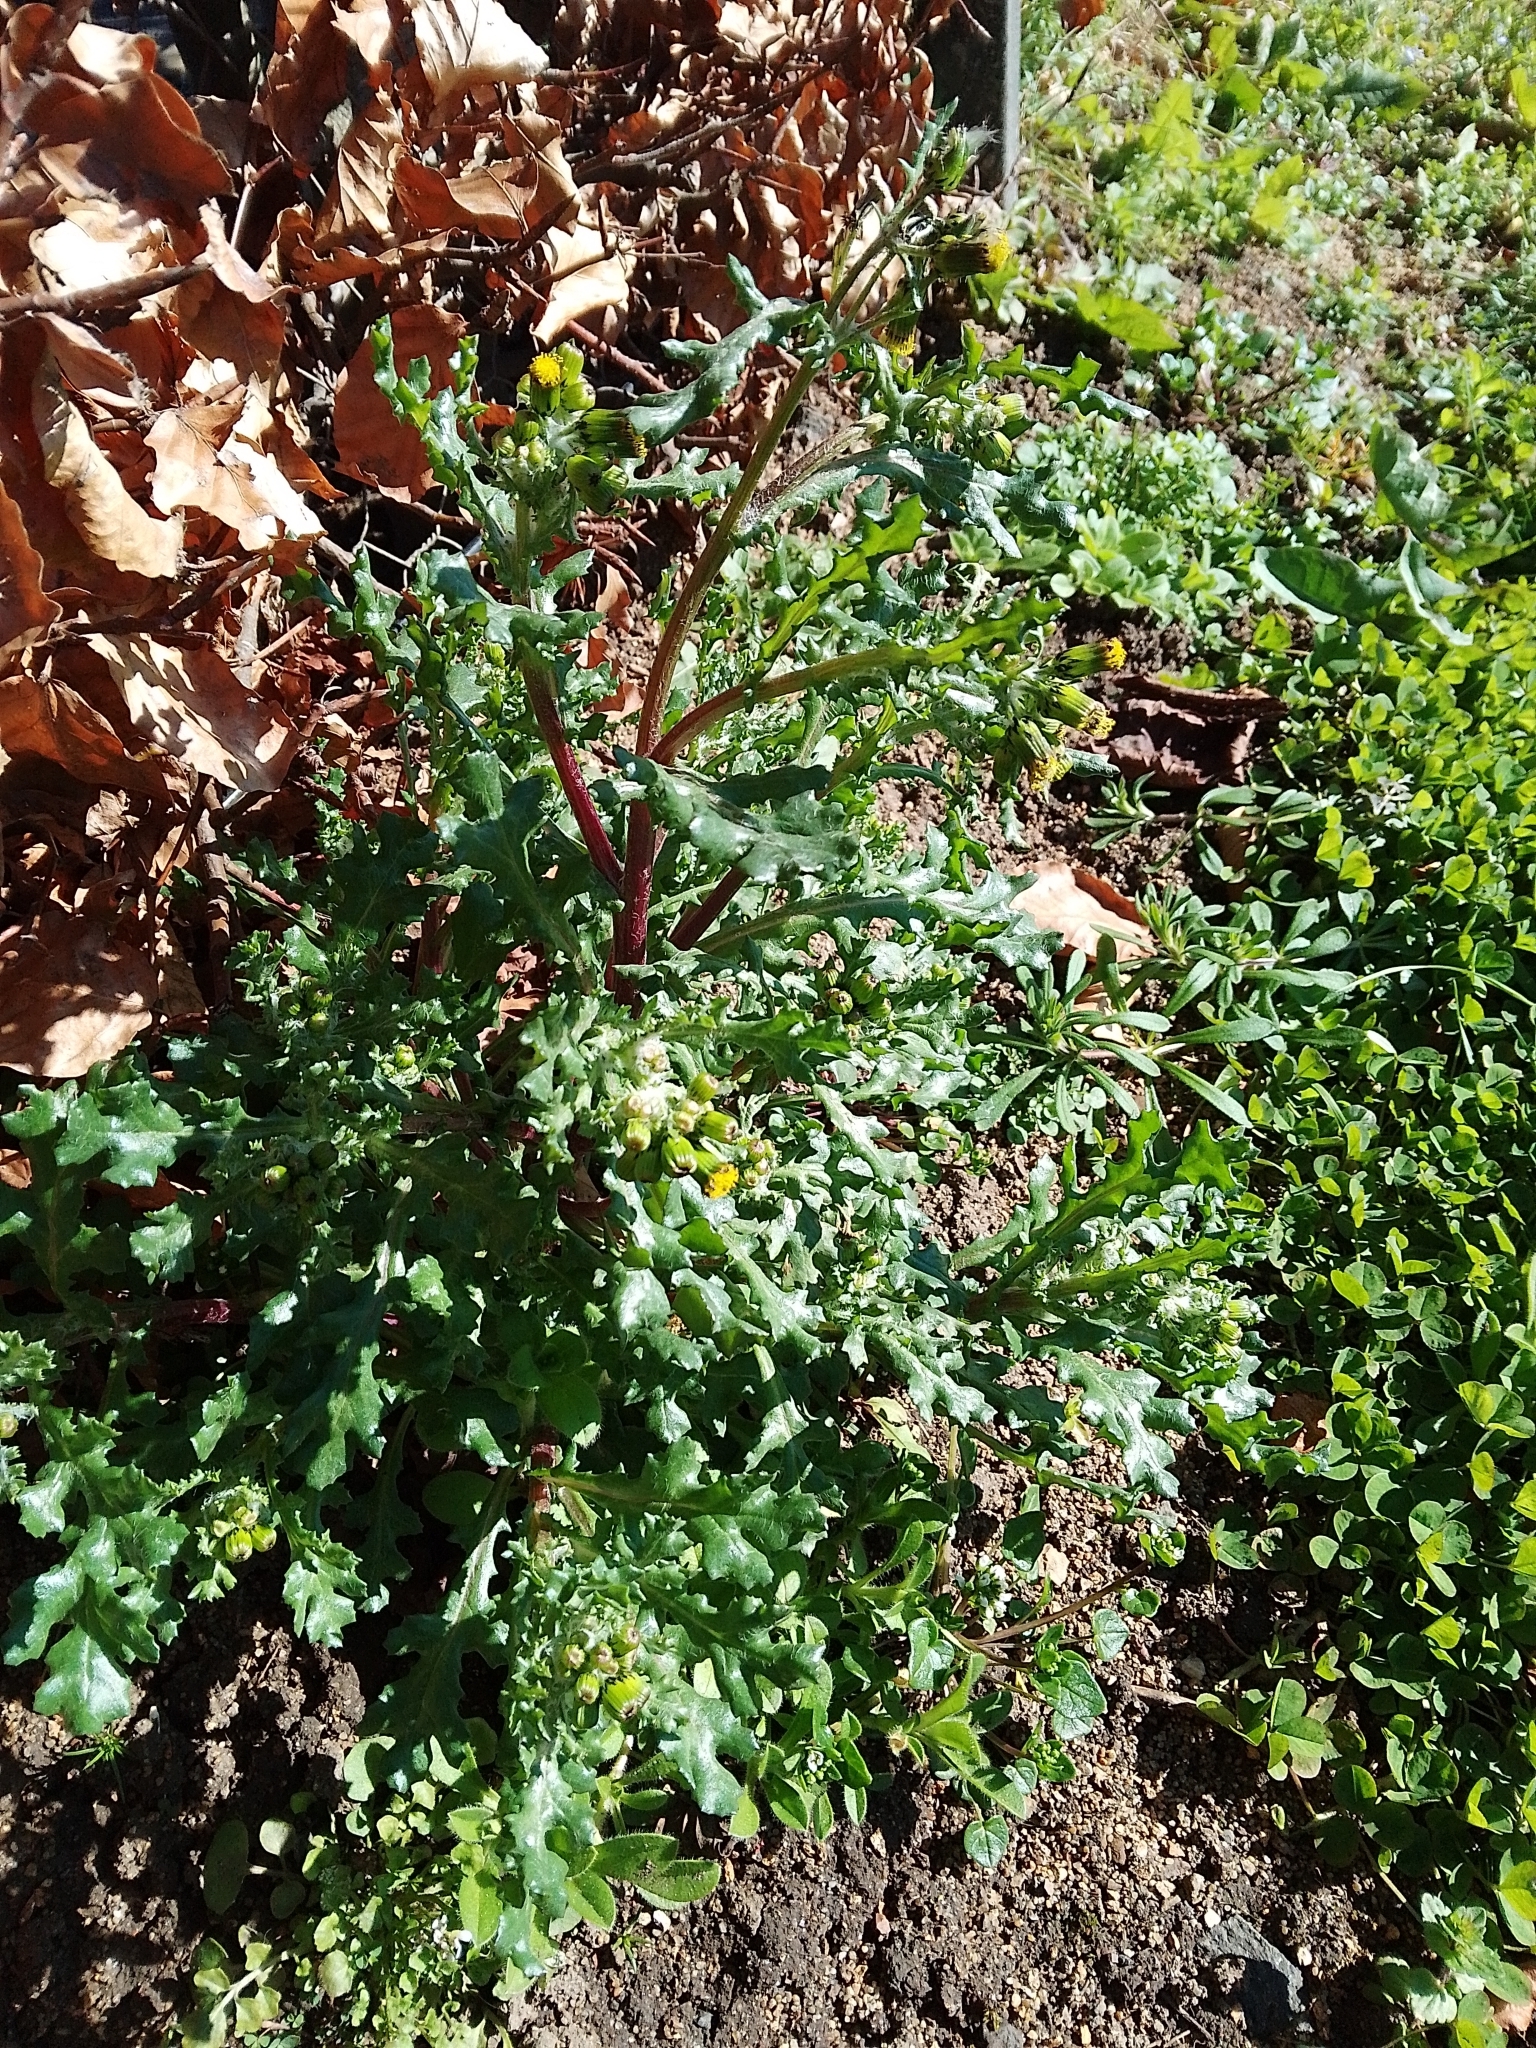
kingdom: Plantae
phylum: Tracheophyta
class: Magnoliopsida
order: Asterales
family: Asteraceae
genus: Senecio
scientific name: Senecio vulgaris
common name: Old-man-in-the-spring
